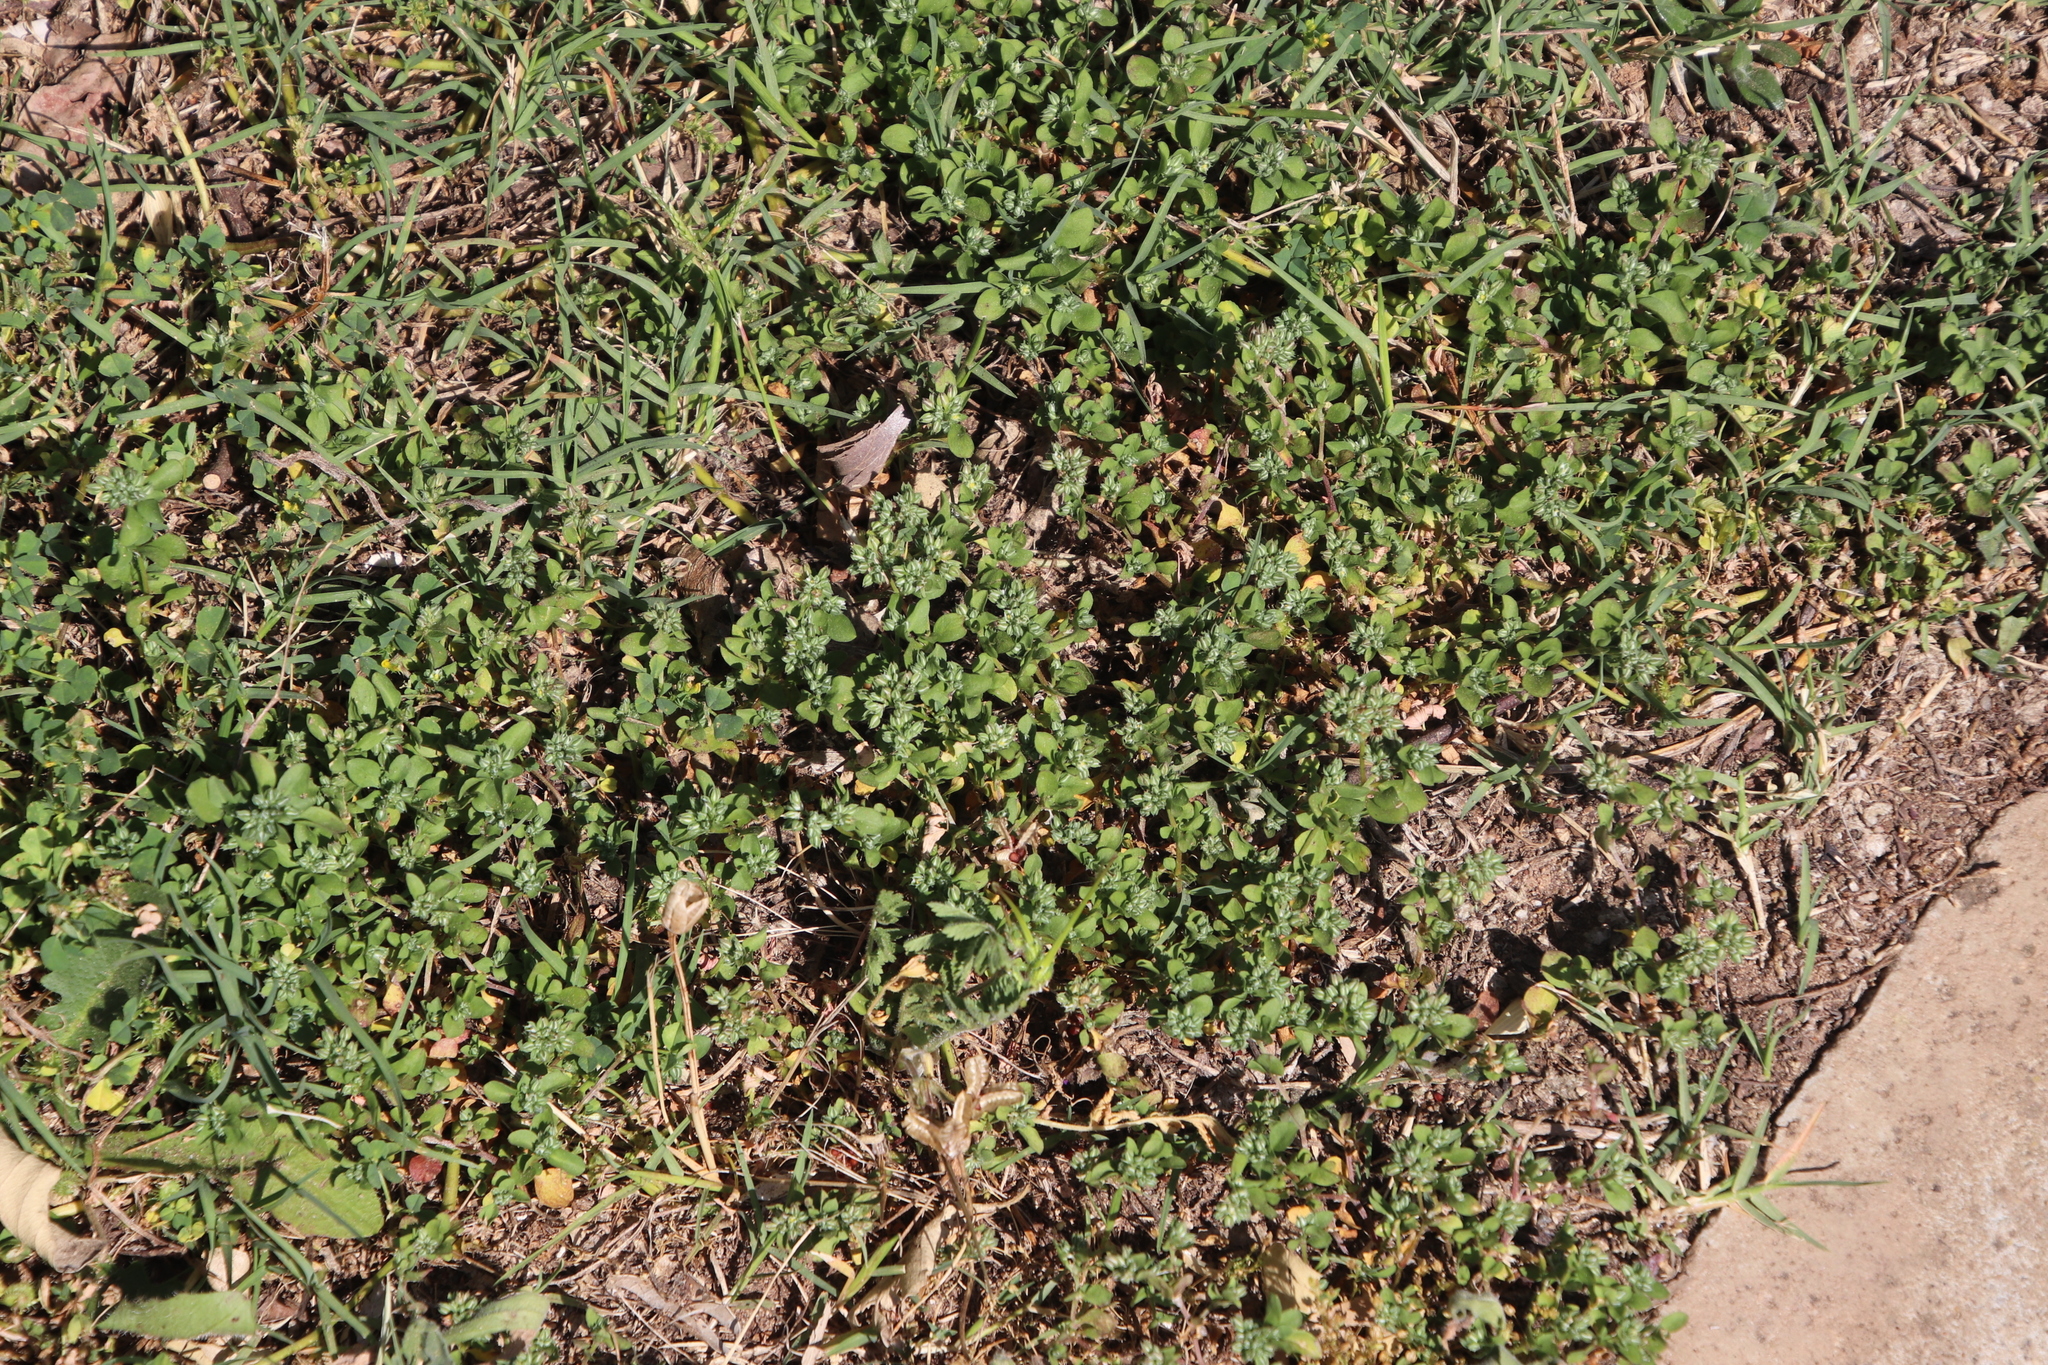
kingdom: Plantae
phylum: Tracheophyta
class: Magnoliopsida
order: Caryophyllales
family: Caryophyllaceae
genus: Polycarpon
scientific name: Polycarpon tetraphyllum
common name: Four-leaved all-seed
